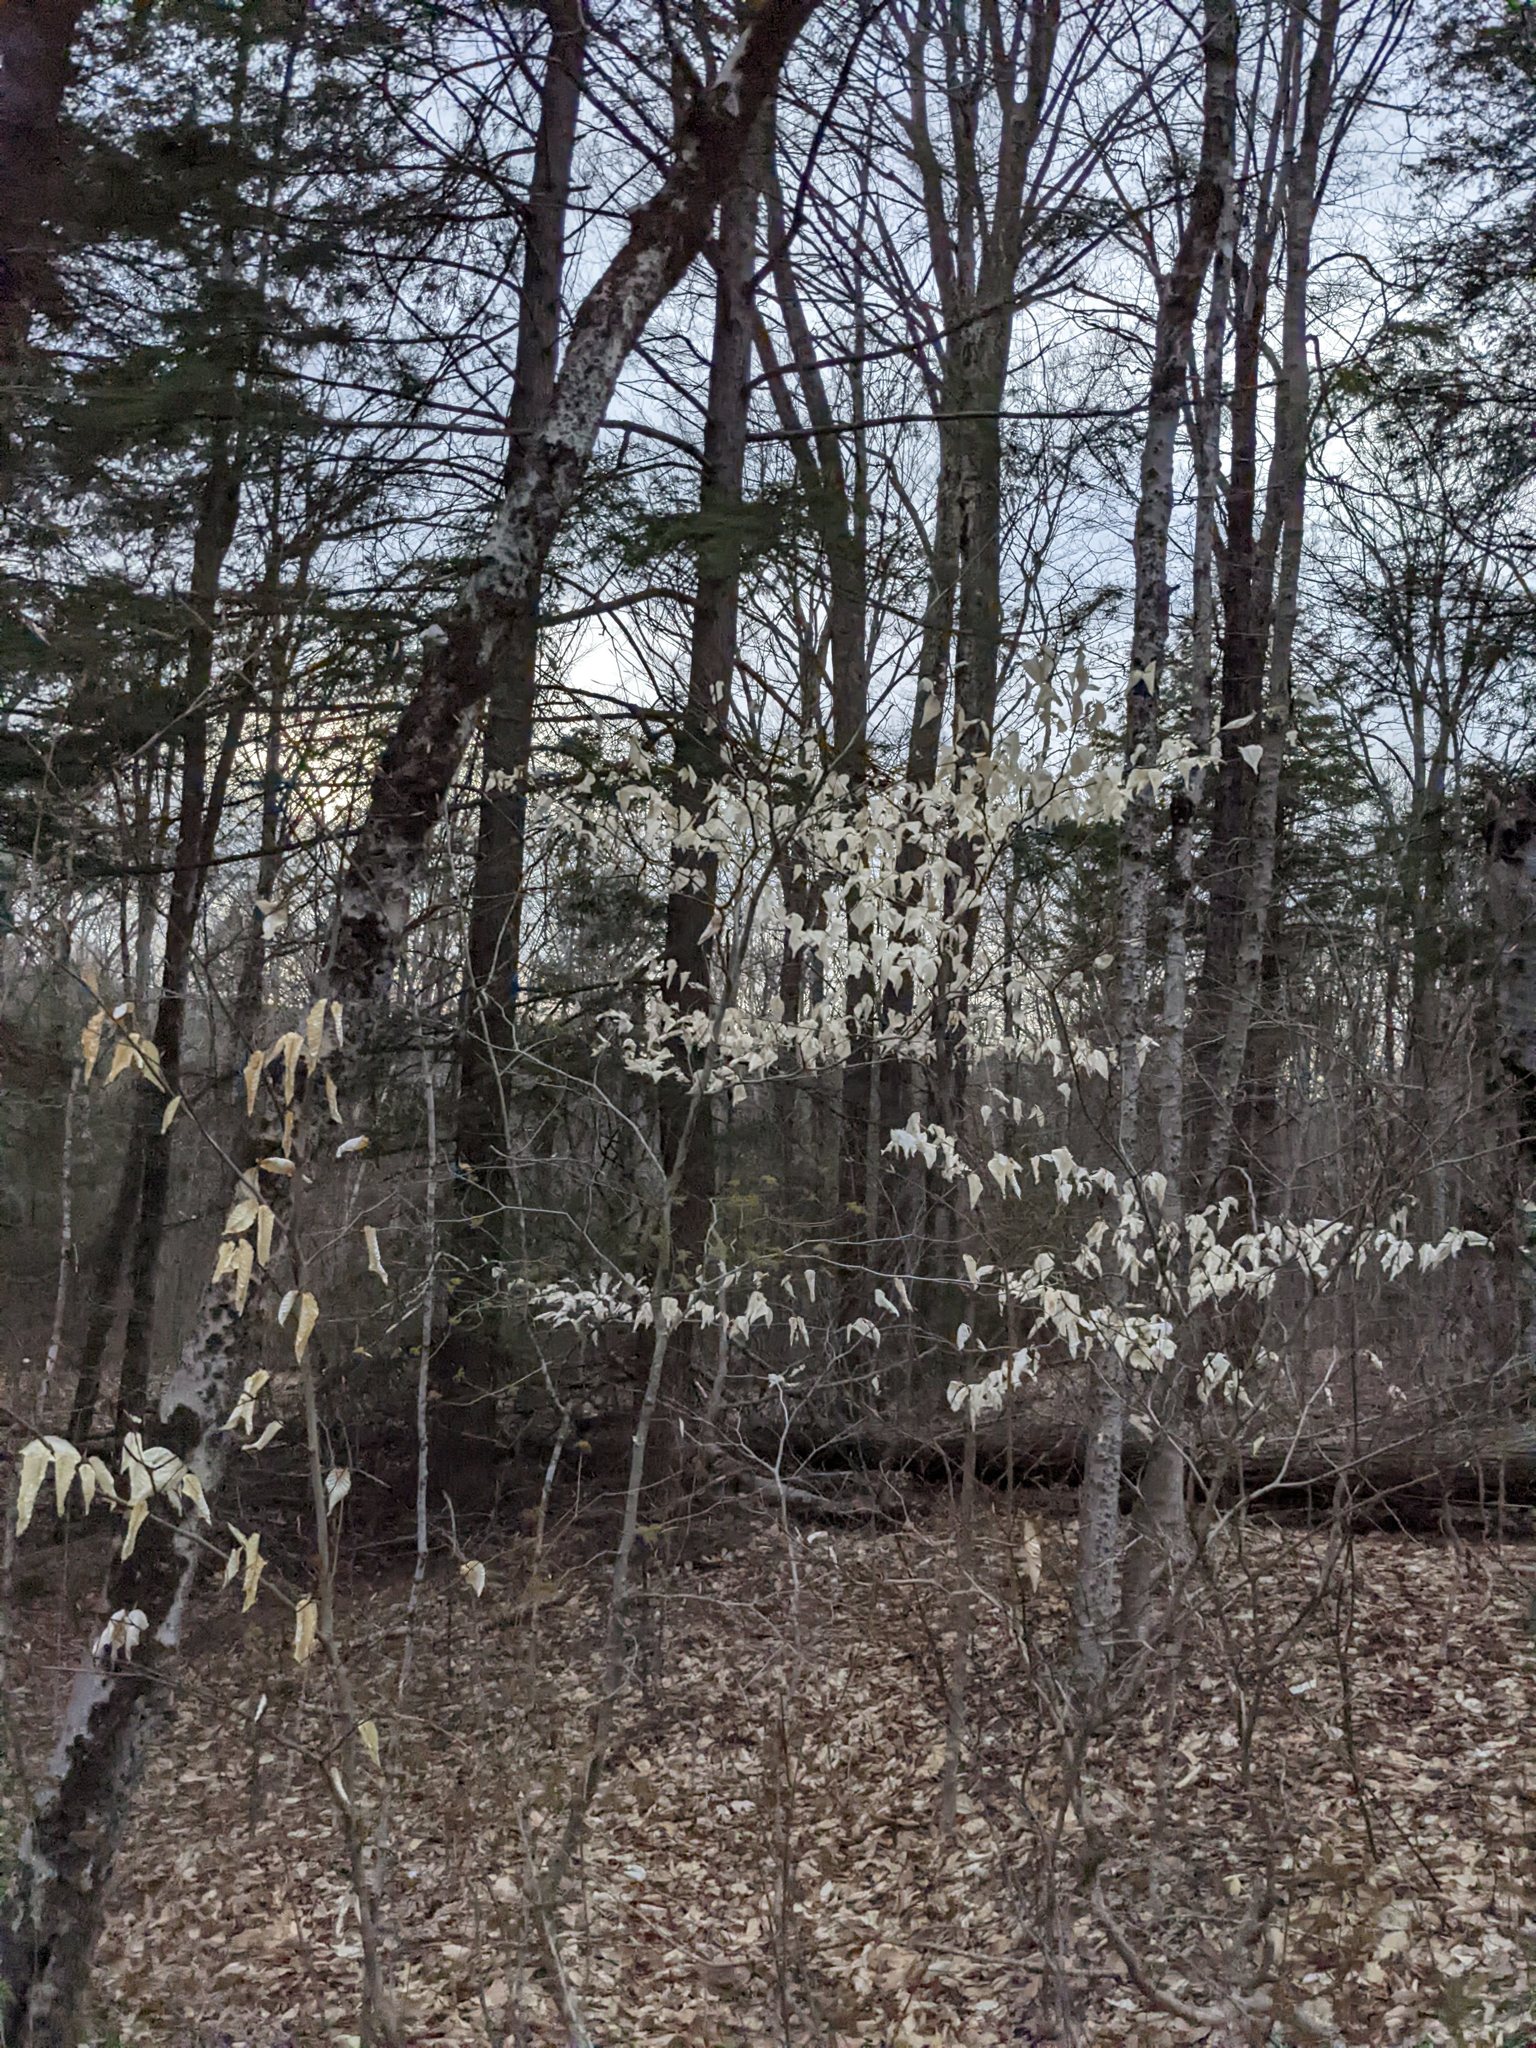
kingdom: Plantae
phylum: Tracheophyta
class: Magnoliopsida
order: Fagales
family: Fagaceae
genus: Fagus
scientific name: Fagus grandifolia
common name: American beech
